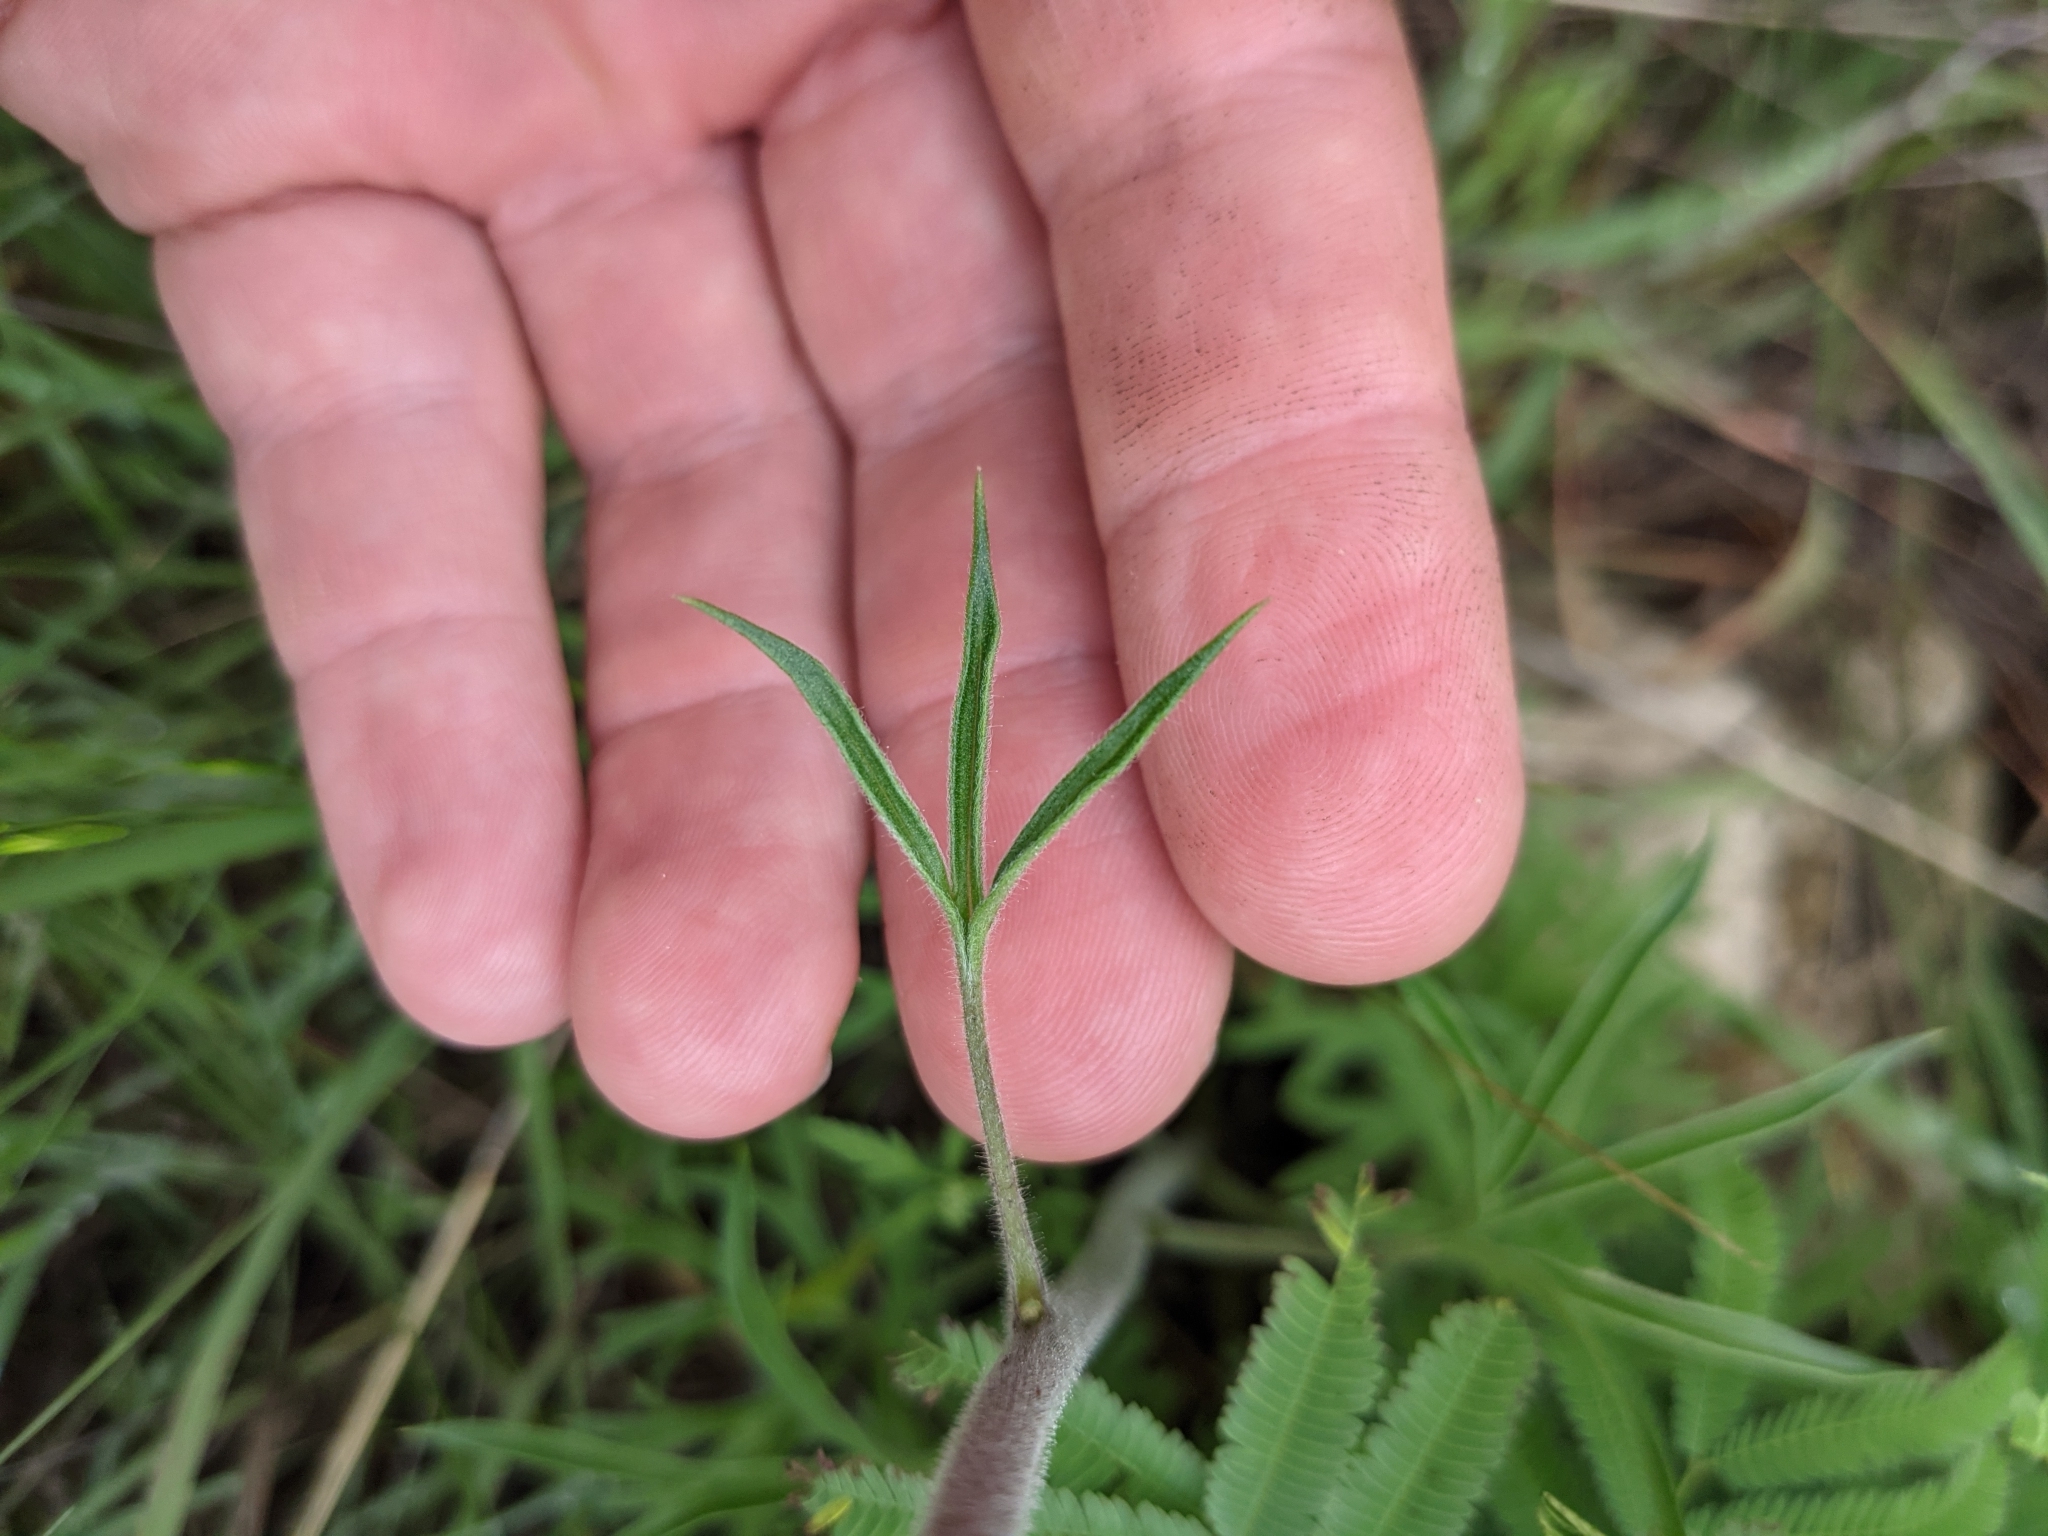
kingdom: Plantae
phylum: Tracheophyta
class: Magnoliopsida
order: Ranunculales
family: Ranunculaceae
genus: Delphinium
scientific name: Delphinium carolinianum
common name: Carolina larkspur
